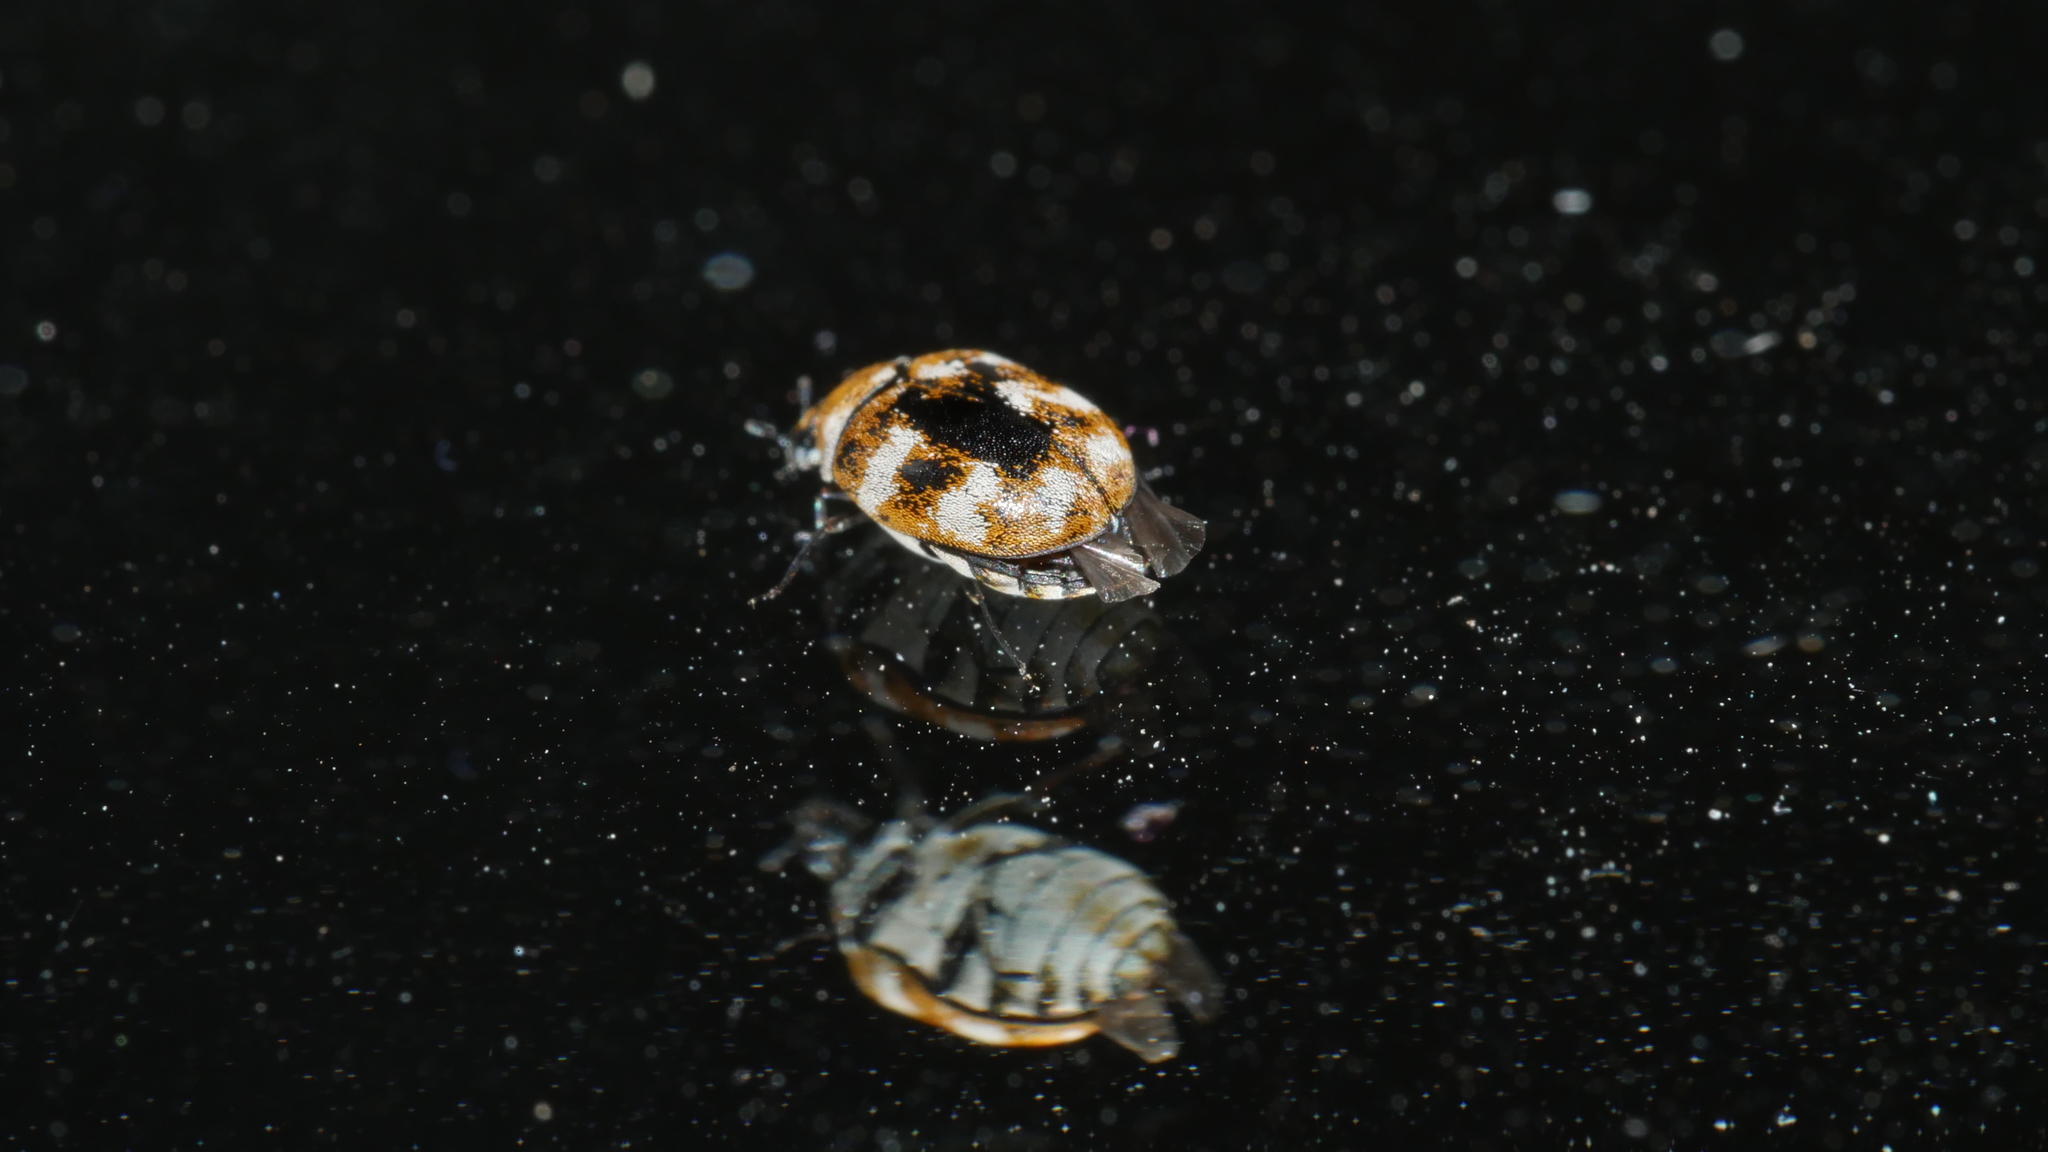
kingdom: Animalia
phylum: Arthropoda
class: Insecta
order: Coleoptera
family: Dermestidae
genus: Anthrenus
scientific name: Anthrenus verbasci
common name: Varied carpet beetle
